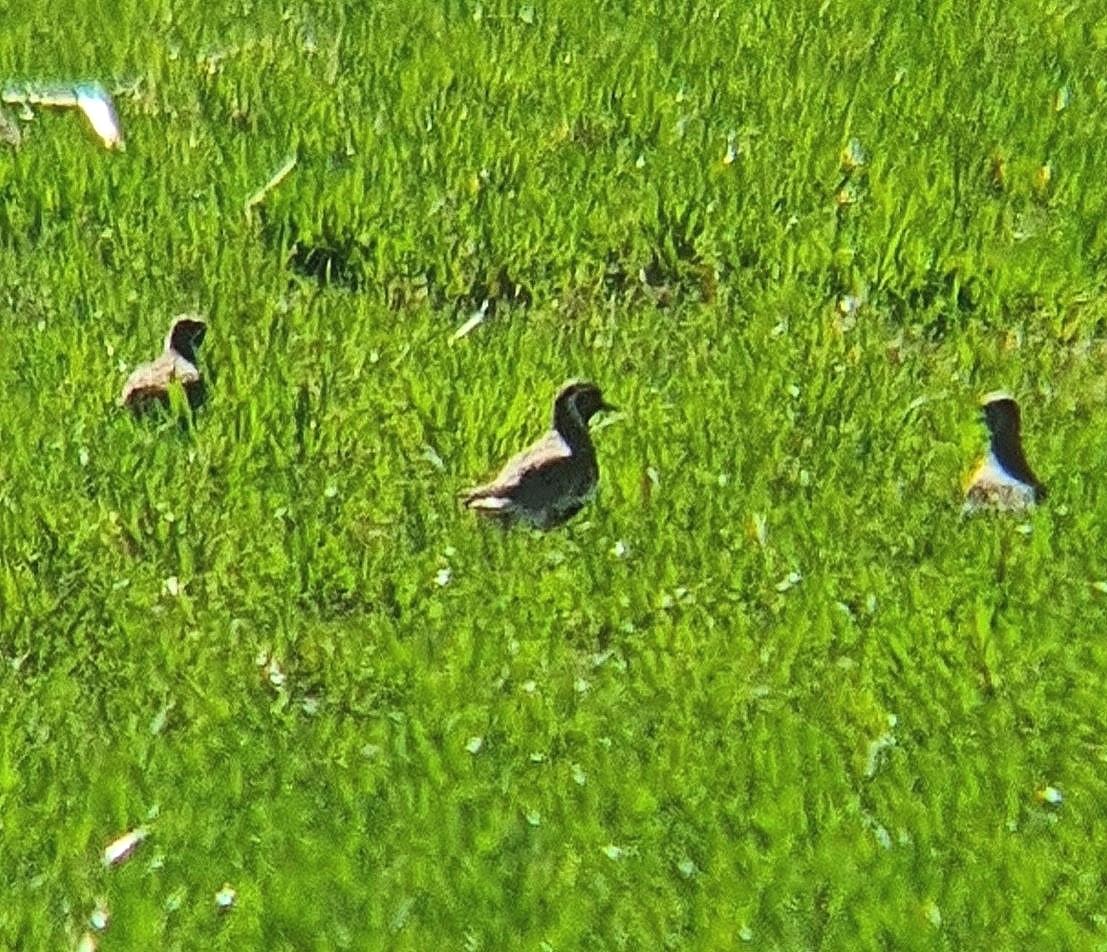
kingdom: Animalia
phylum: Chordata
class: Aves
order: Charadriiformes
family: Charadriidae
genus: Pluvialis
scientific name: Pluvialis apricaria
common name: European golden plover
